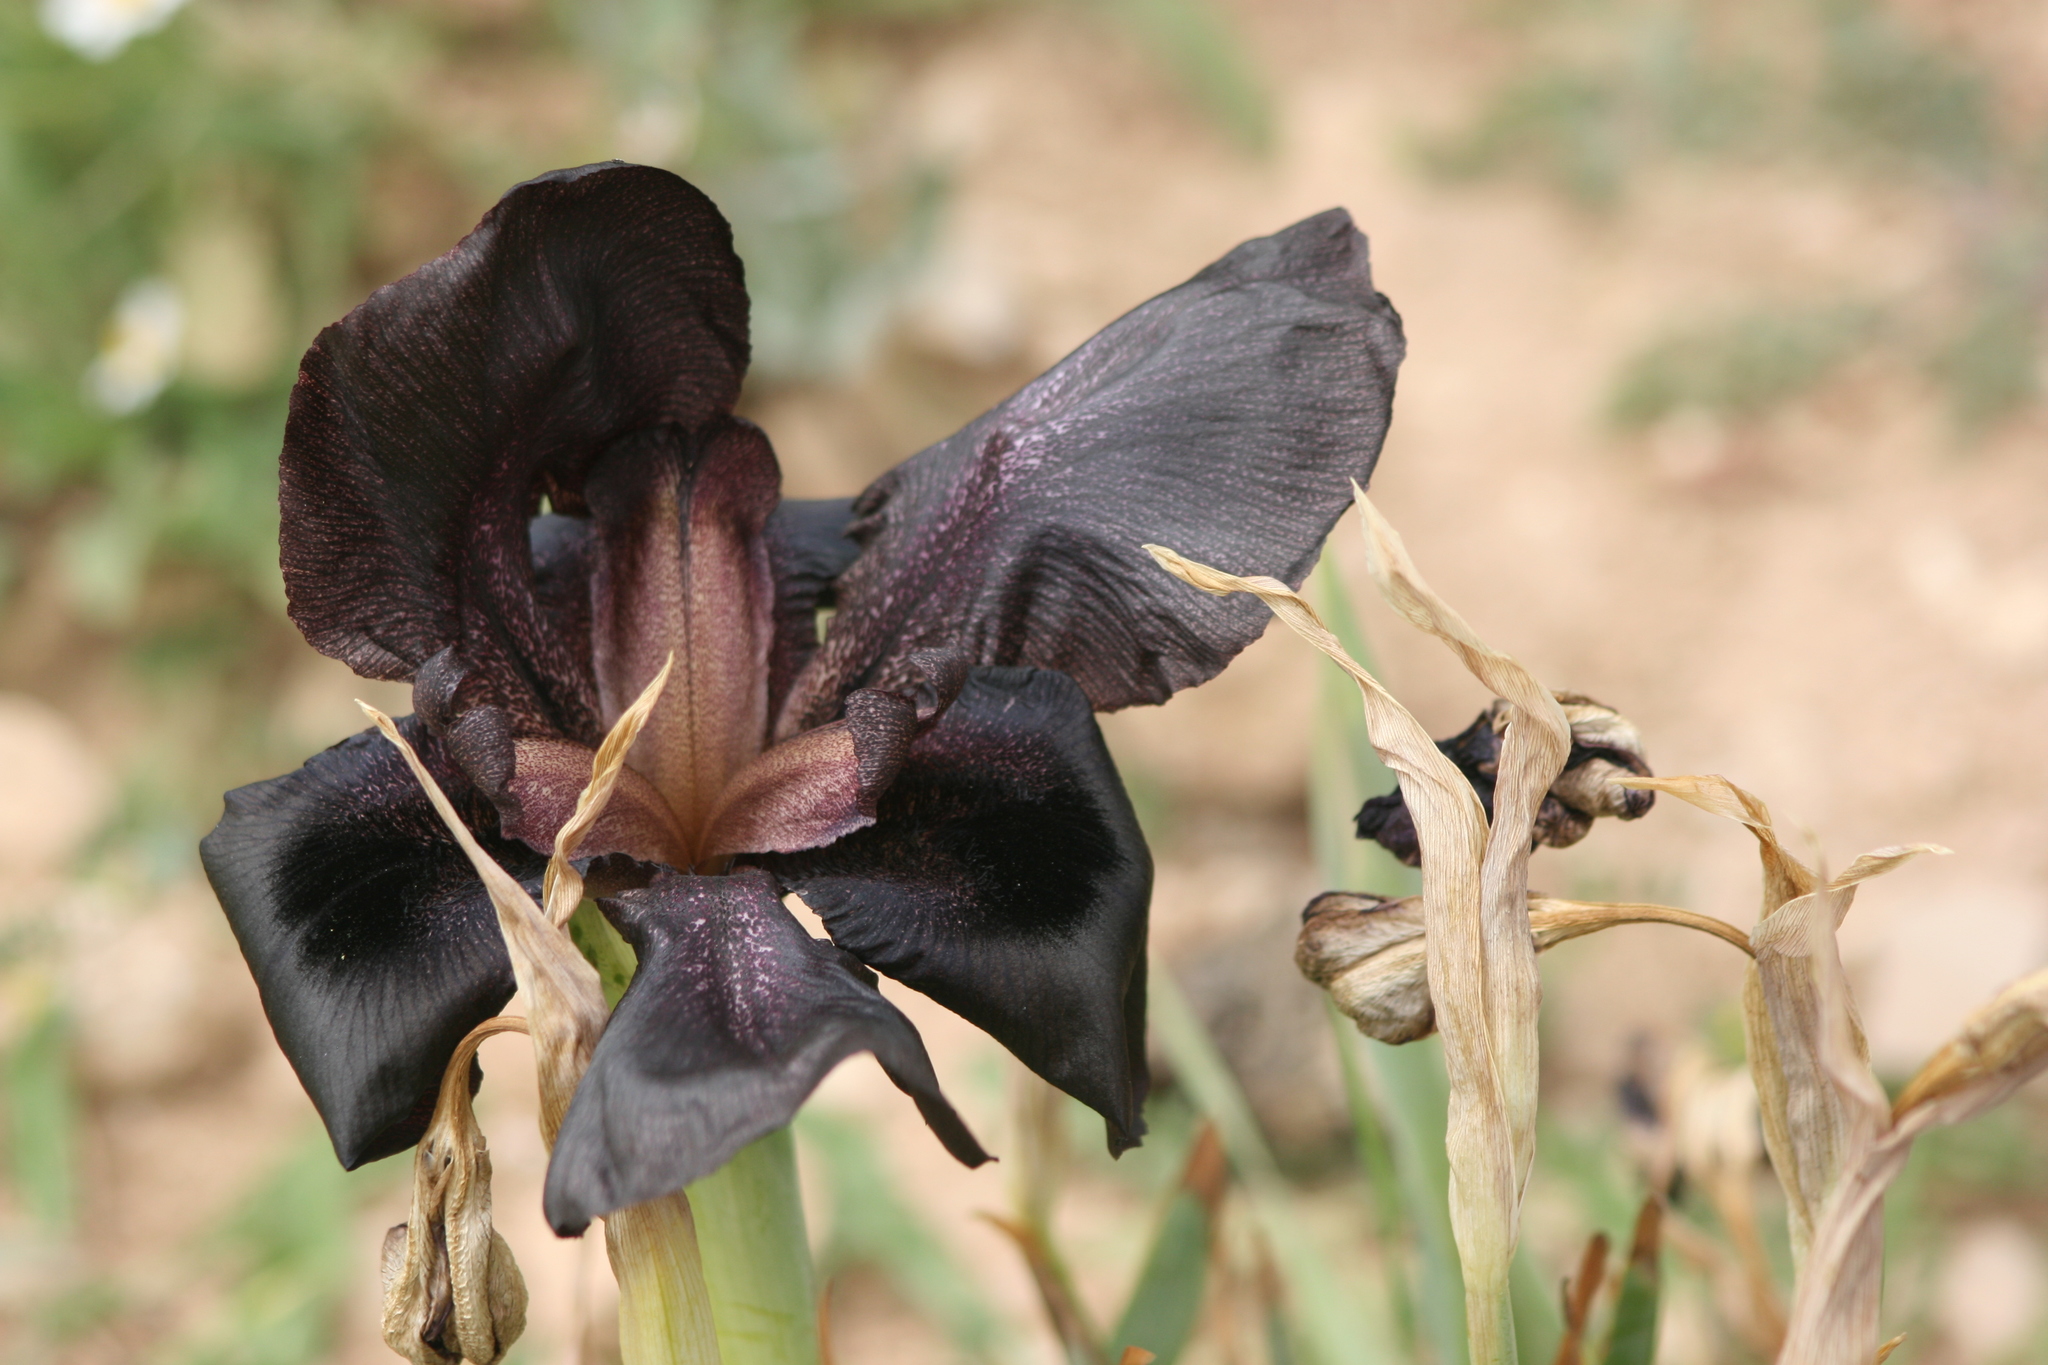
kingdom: Plantae
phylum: Tracheophyta
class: Liliopsida
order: Asparagales
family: Iridaceae
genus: Iris
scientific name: Iris nigricans
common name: Black iris
